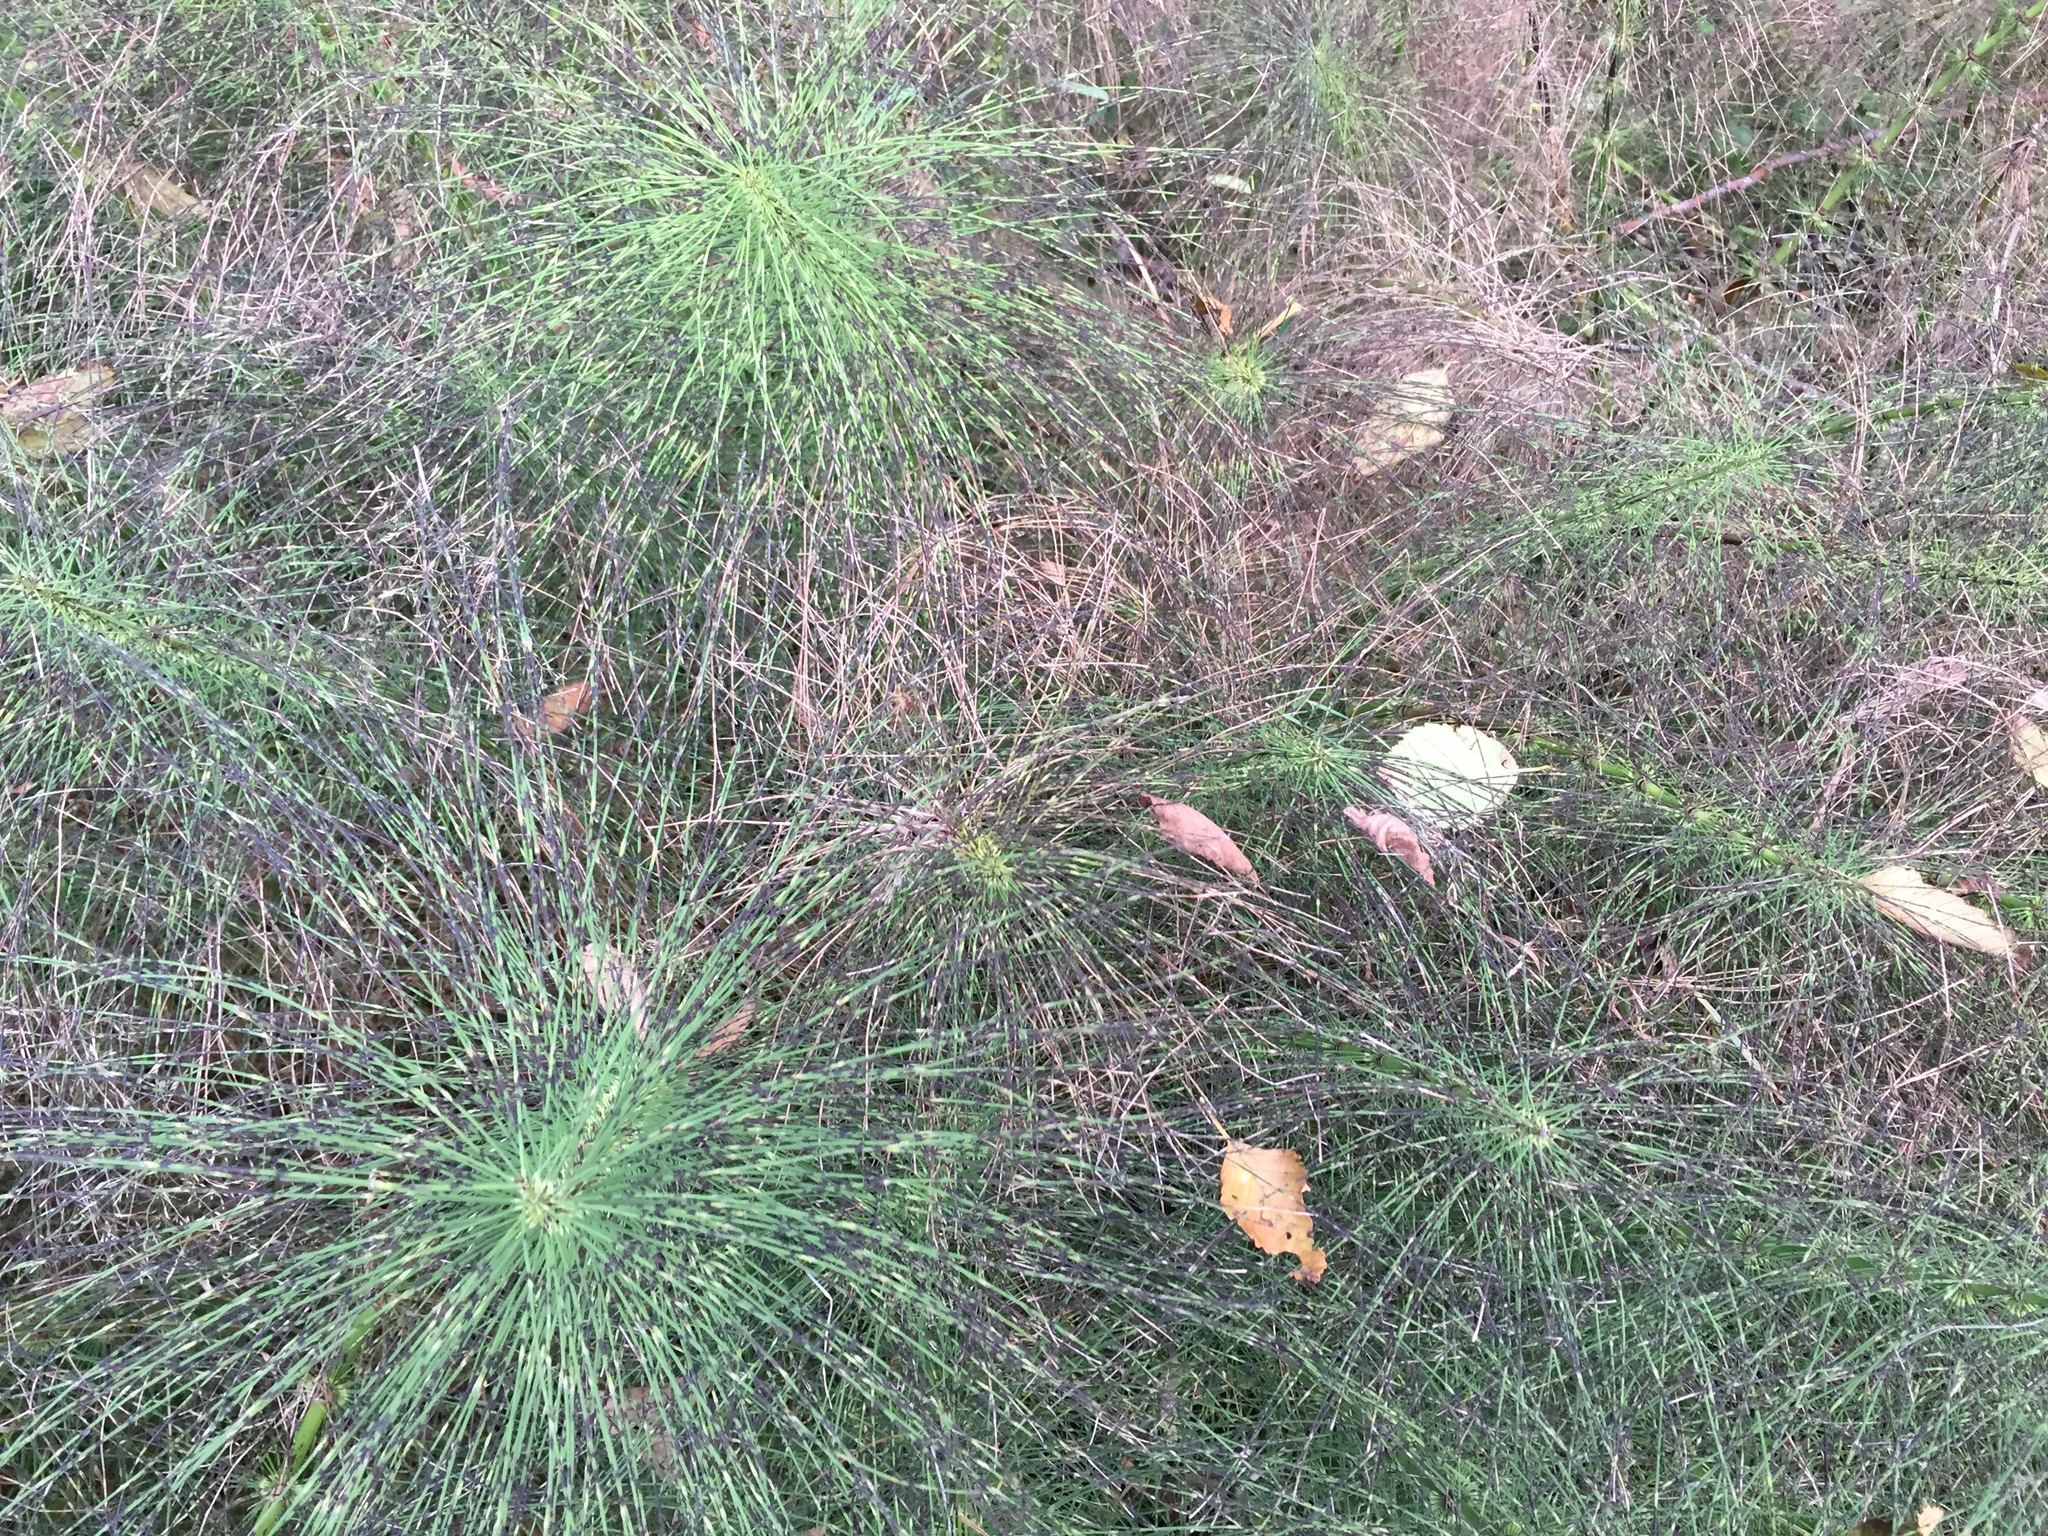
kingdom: Plantae
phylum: Tracheophyta
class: Polypodiopsida
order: Equisetales
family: Equisetaceae
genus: Equisetum
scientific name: Equisetum telmateia
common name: Great horsetail
